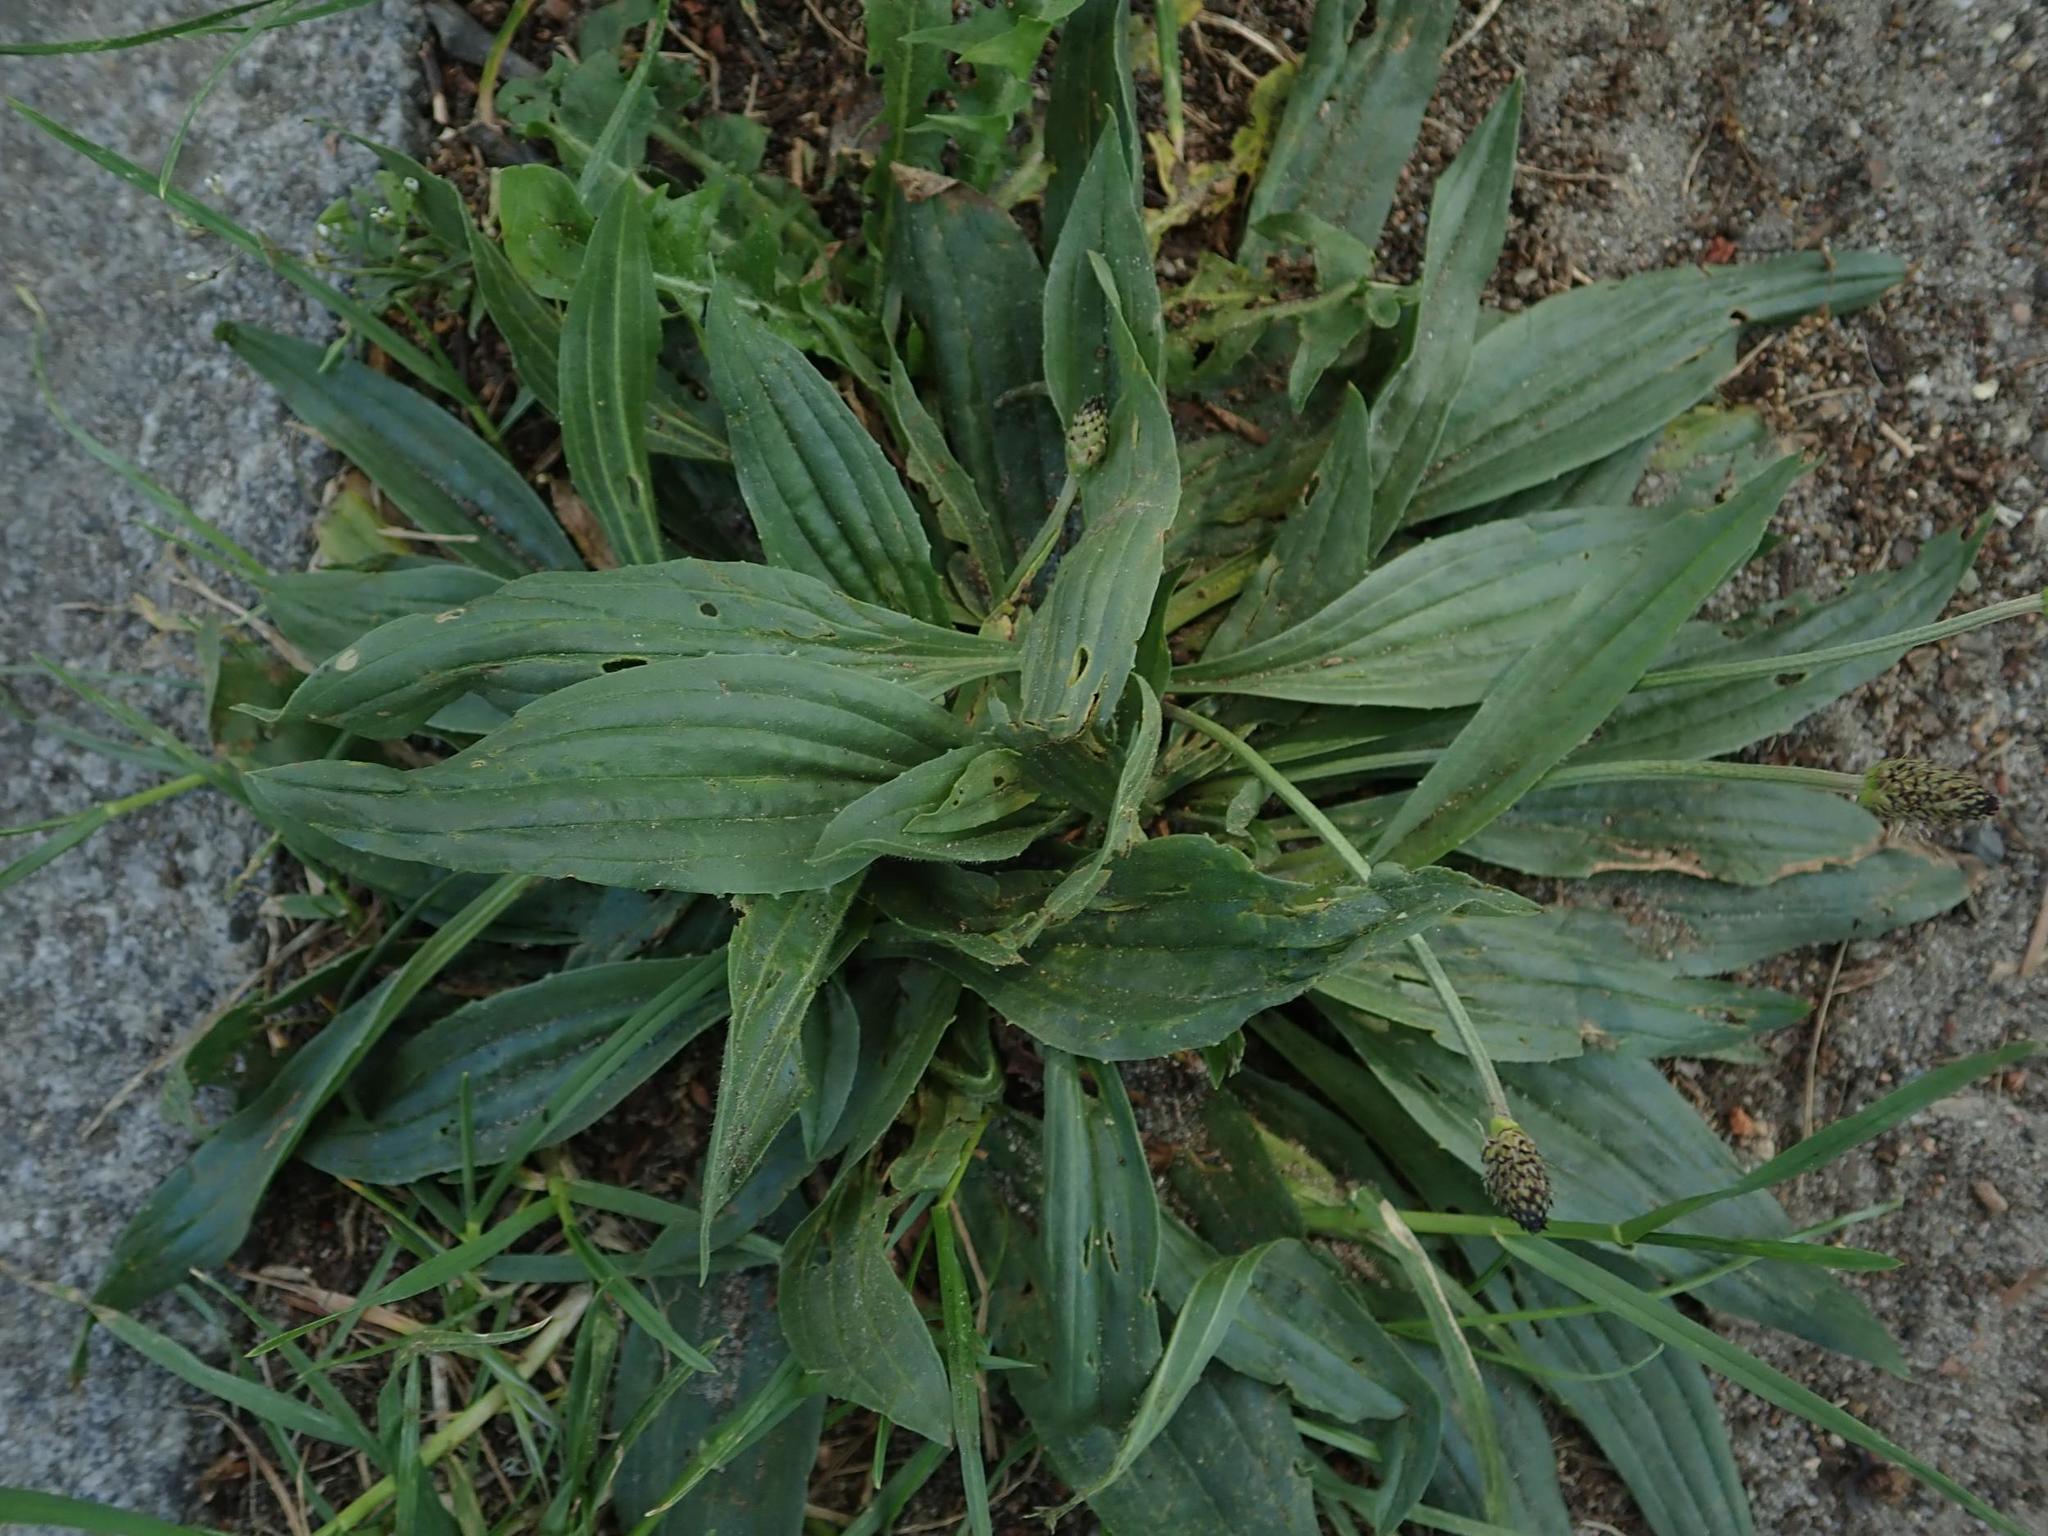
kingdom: Plantae
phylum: Tracheophyta
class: Magnoliopsida
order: Lamiales
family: Plantaginaceae
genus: Plantago
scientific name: Plantago lanceolata
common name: Ribwort plantain
